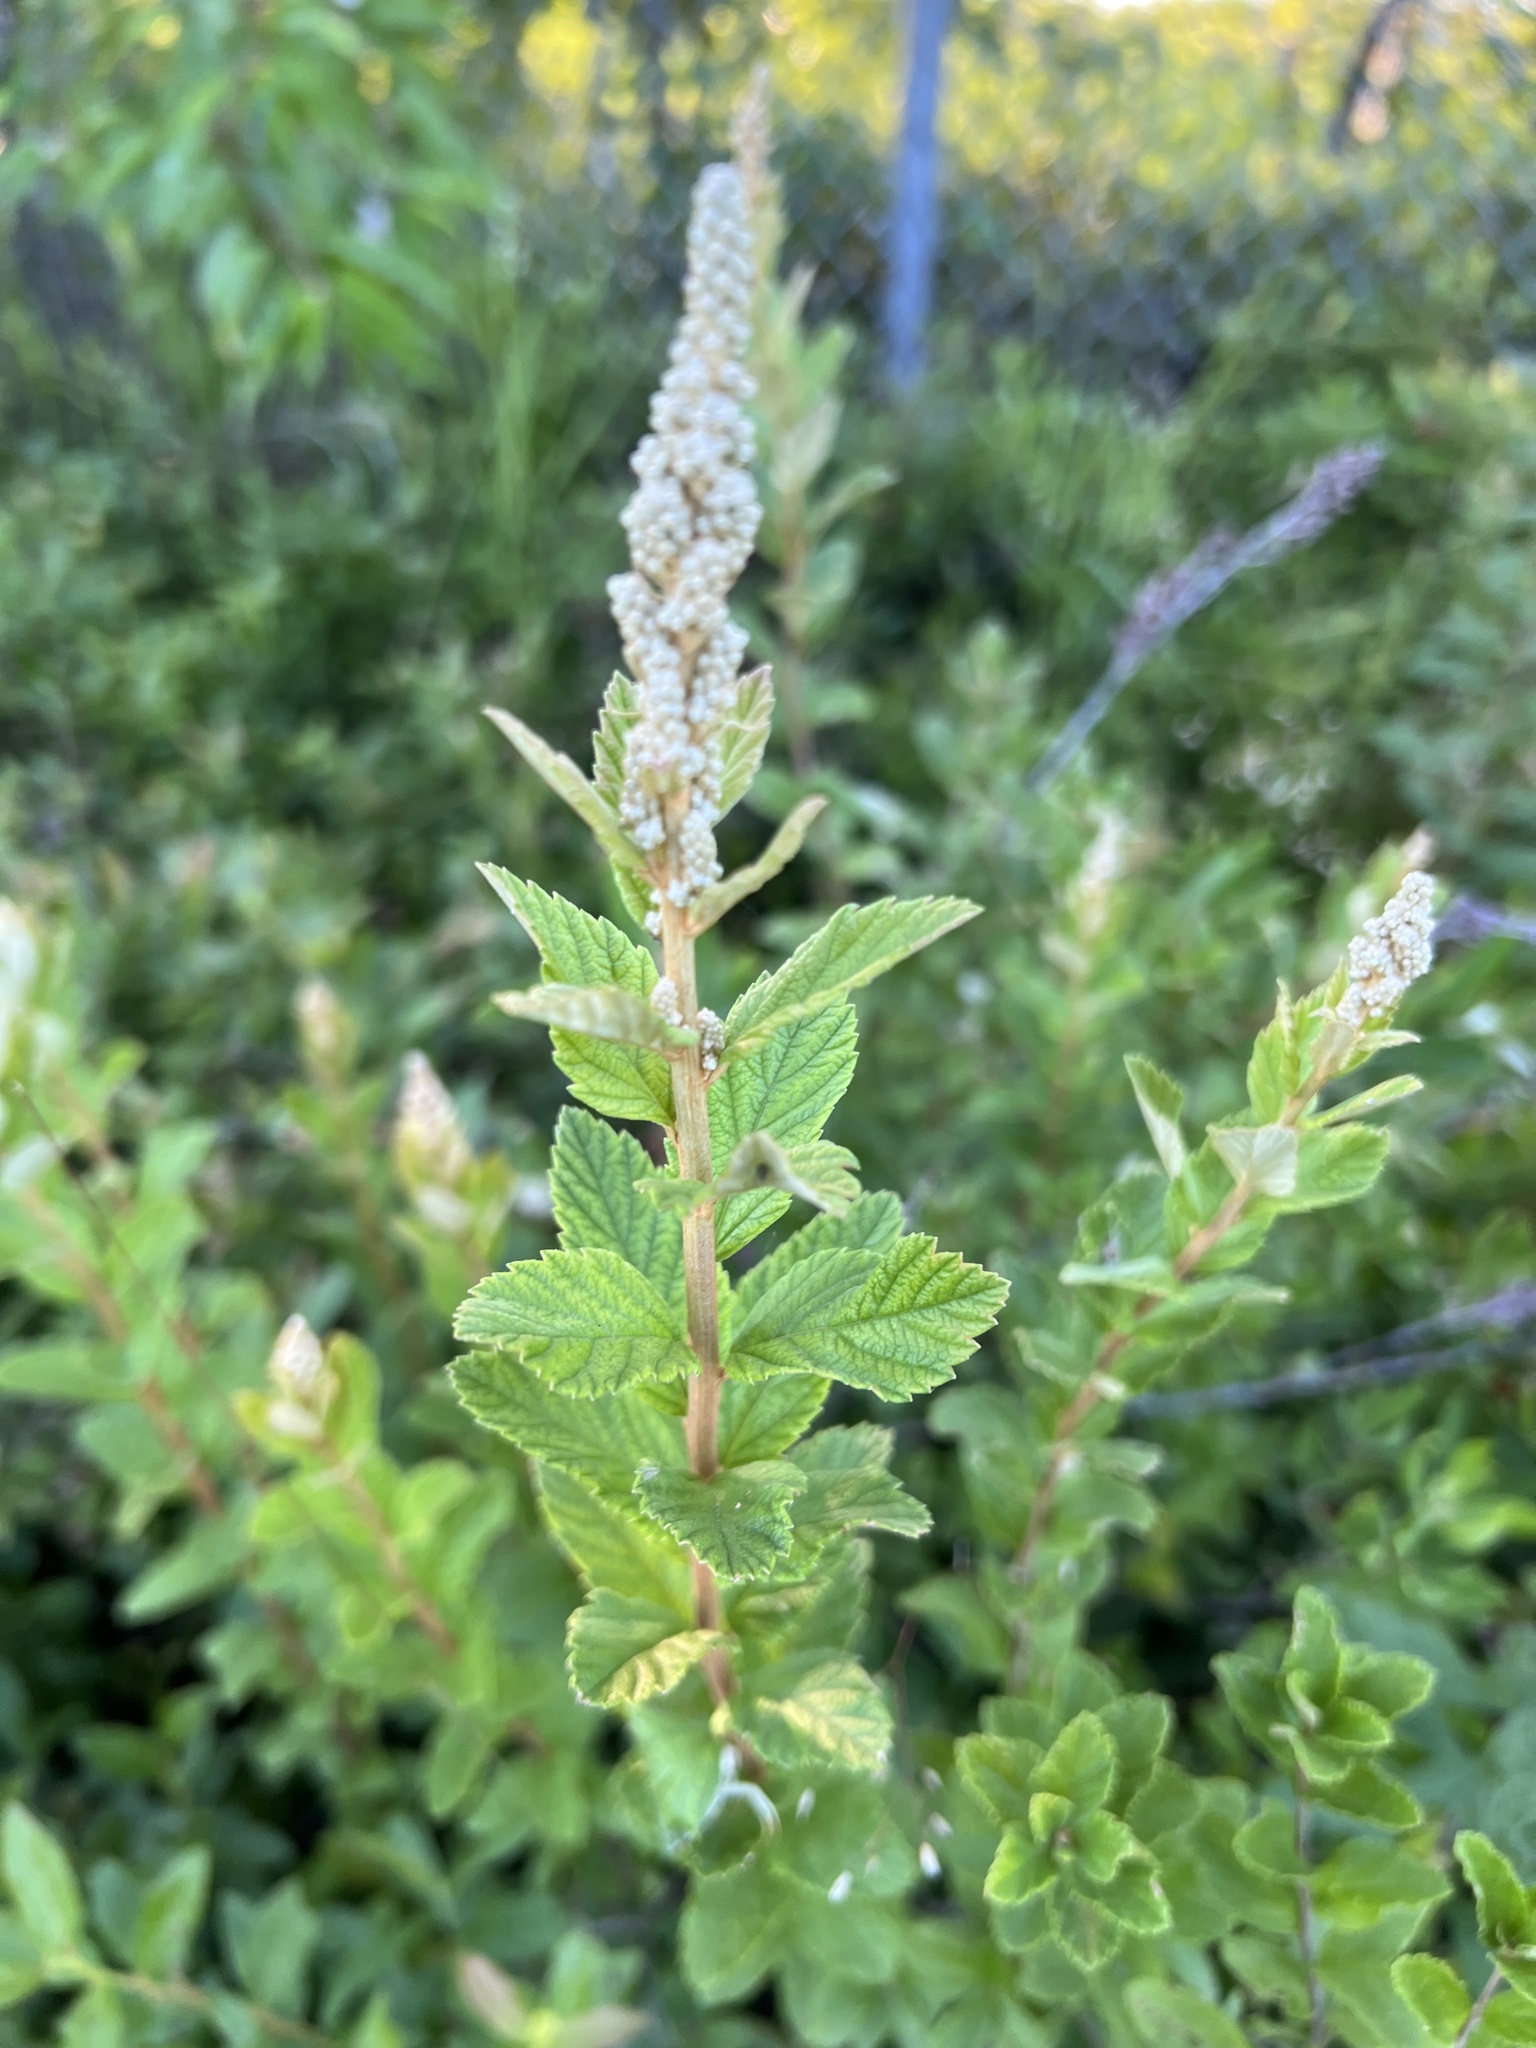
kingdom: Plantae
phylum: Tracheophyta
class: Magnoliopsida
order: Rosales
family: Rosaceae
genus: Spiraea
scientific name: Spiraea tomentosa
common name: Hardhack
